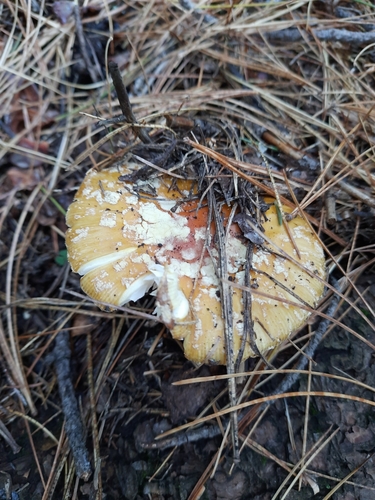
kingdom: Fungi
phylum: Basidiomycota
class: Agaricomycetes
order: Agaricales
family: Amanitaceae
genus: Amanita
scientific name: Amanita
